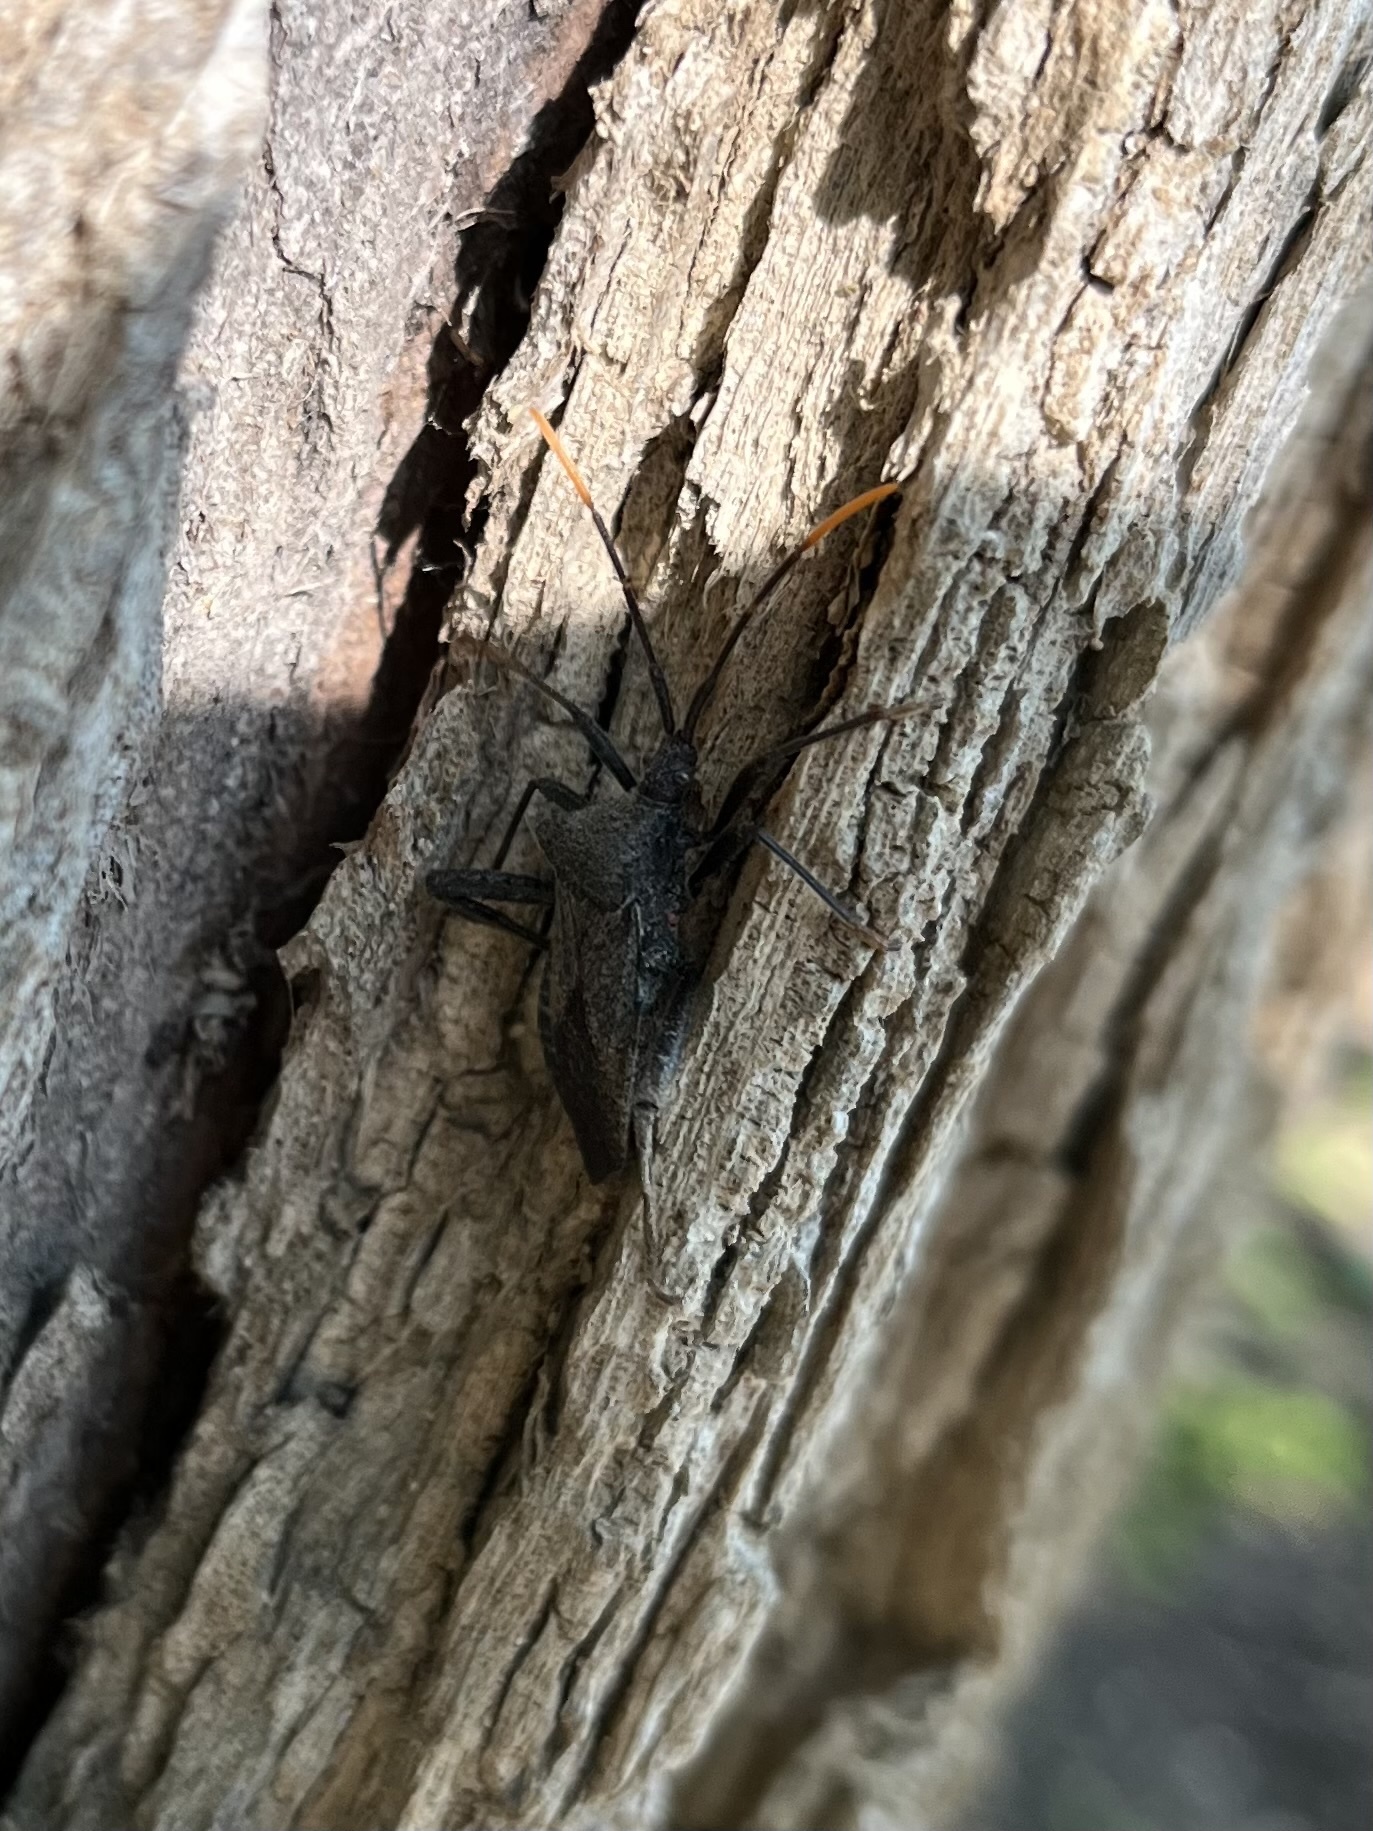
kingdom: Animalia
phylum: Arthropoda
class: Insecta
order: Hemiptera
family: Coreidae
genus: Acanthocephala
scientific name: Acanthocephala terminalis
